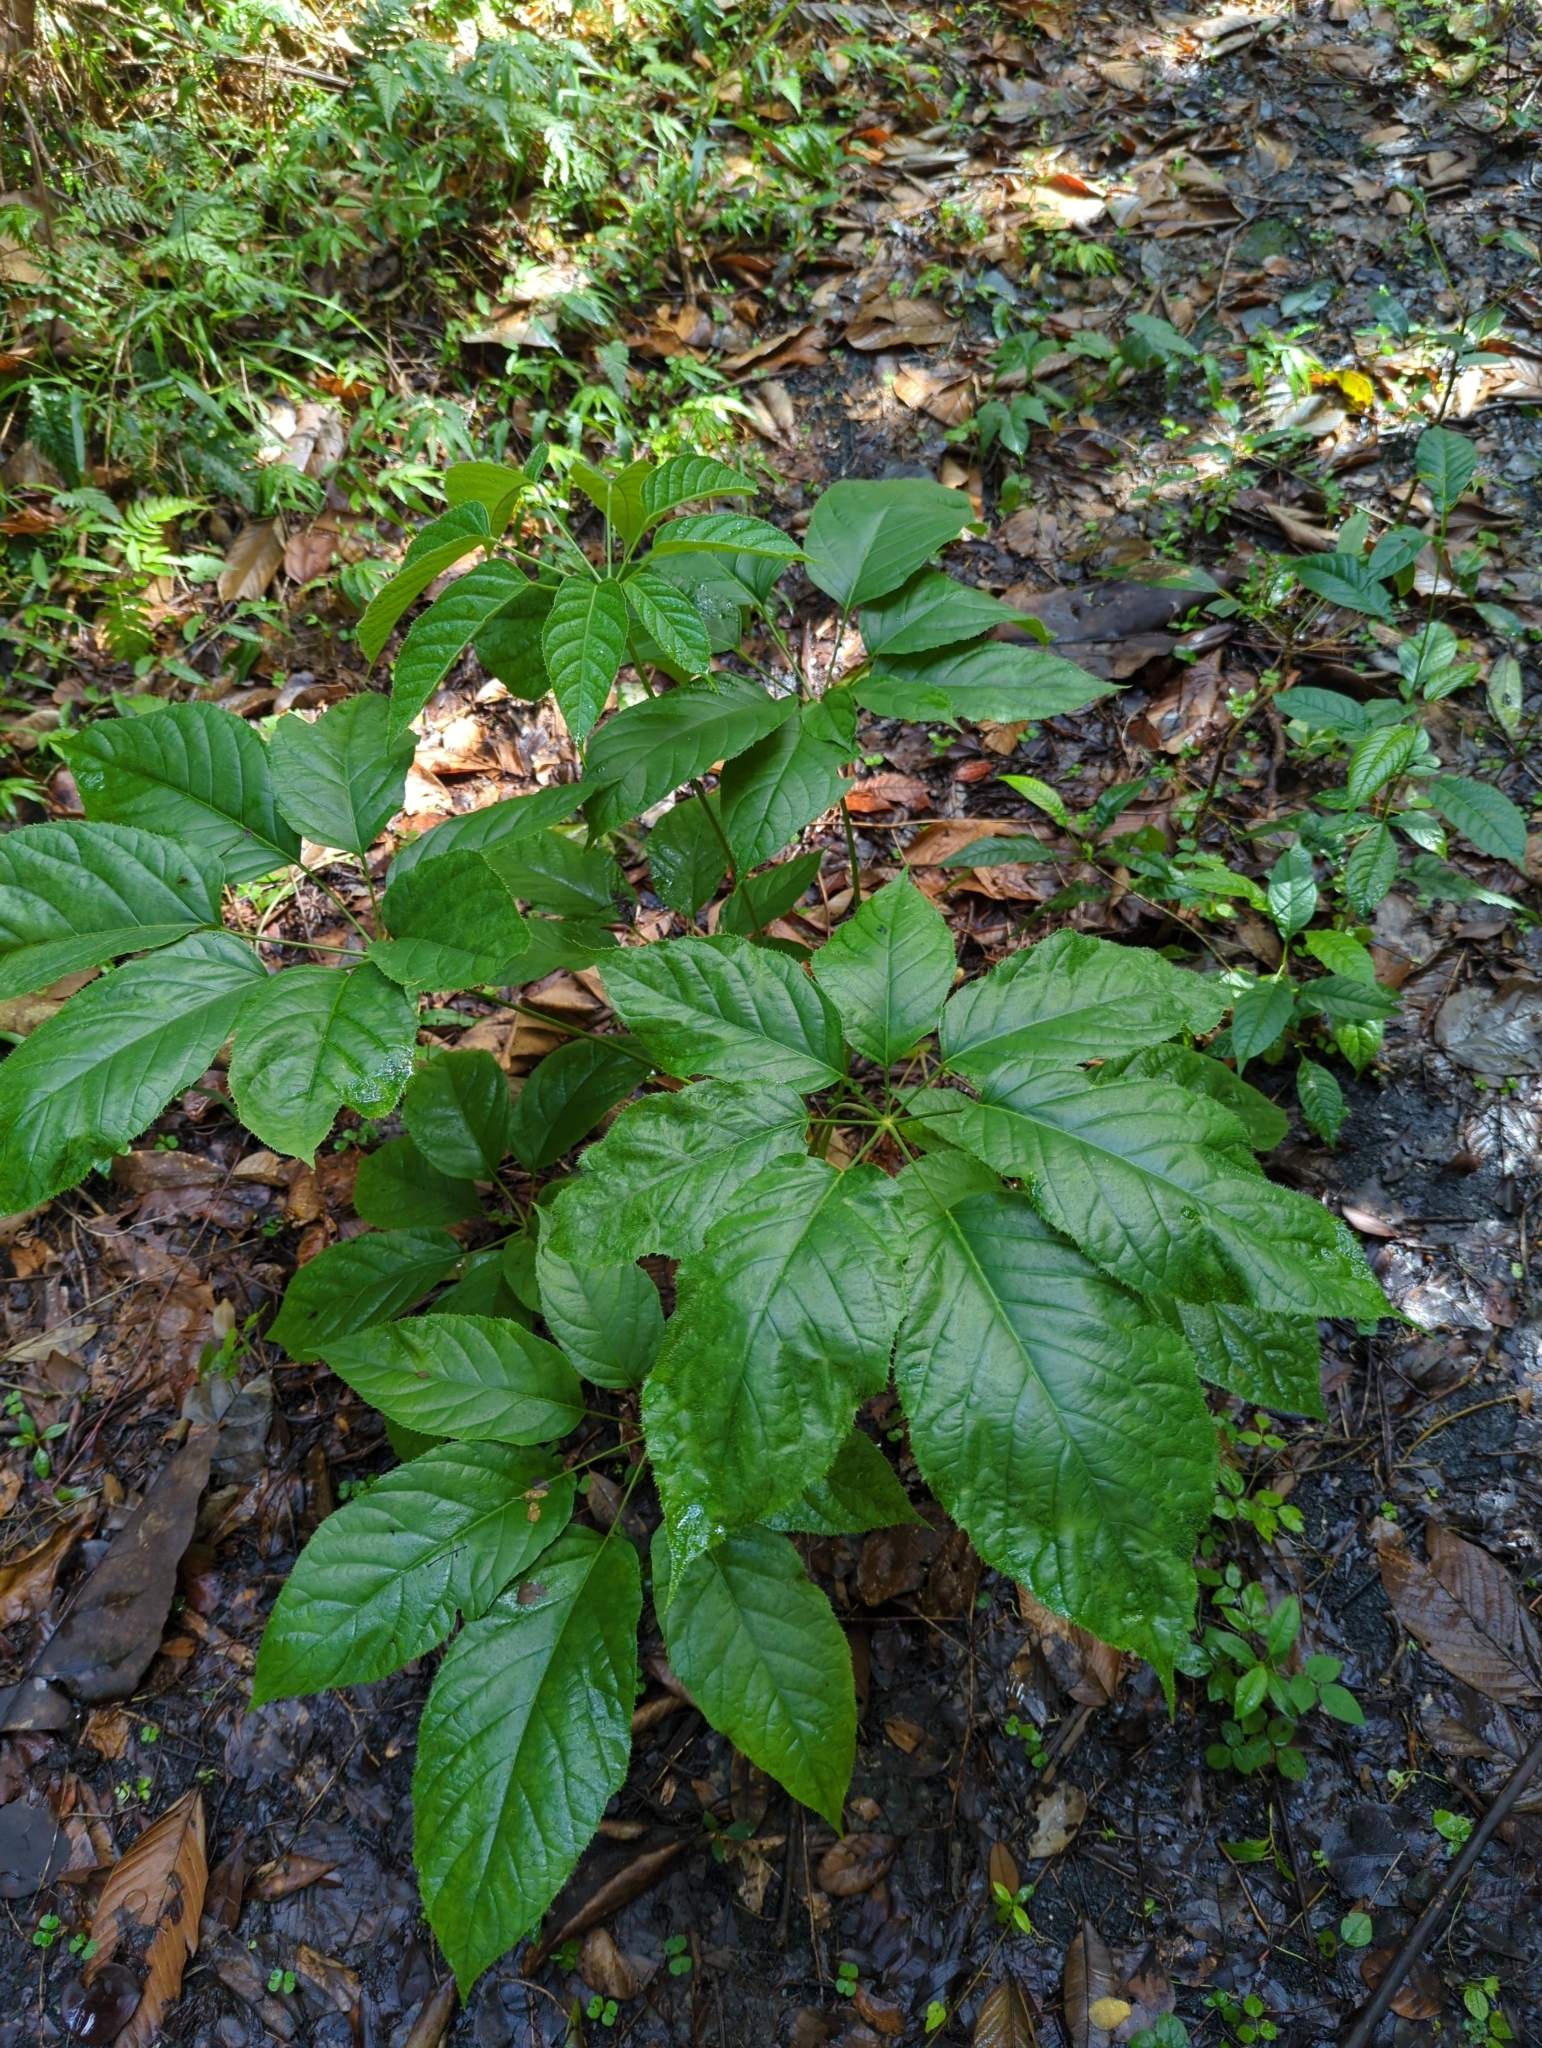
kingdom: Plantae
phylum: Tracheophyta
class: Magnoliopsida
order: Apiales
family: Araliaceae
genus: Didymopanax
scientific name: Didymopanax morototoni
